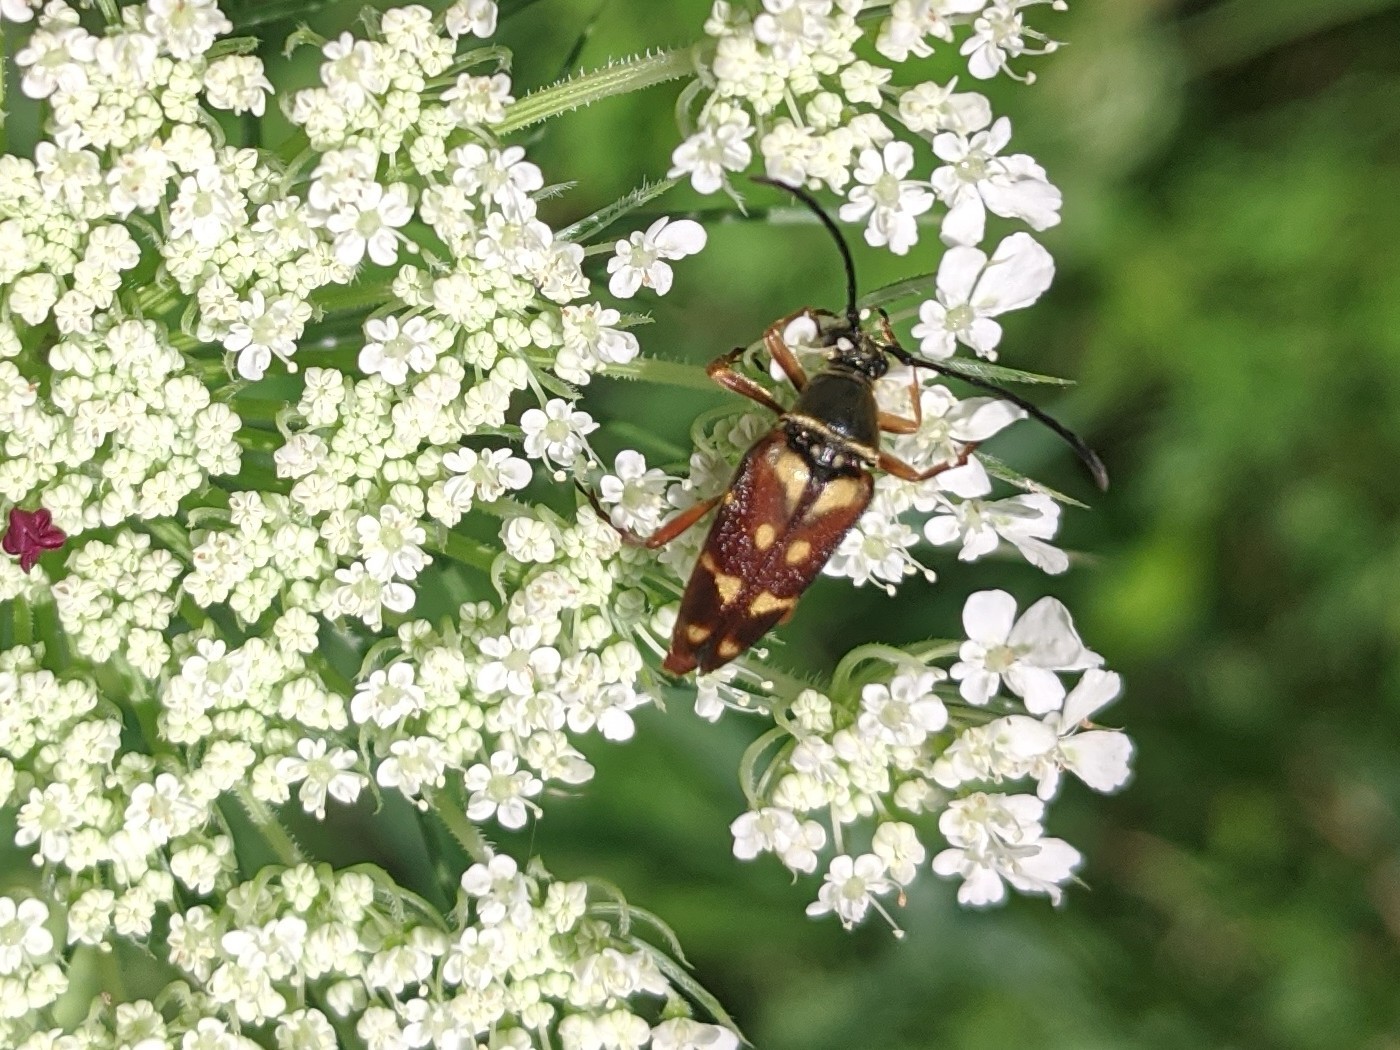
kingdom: Animalia
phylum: Arthropoda
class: Insecta
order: Coleoptera
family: Cerambycidae
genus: Typocerus
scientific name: Typocerus velutinus
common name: Banded longhorn beetle
